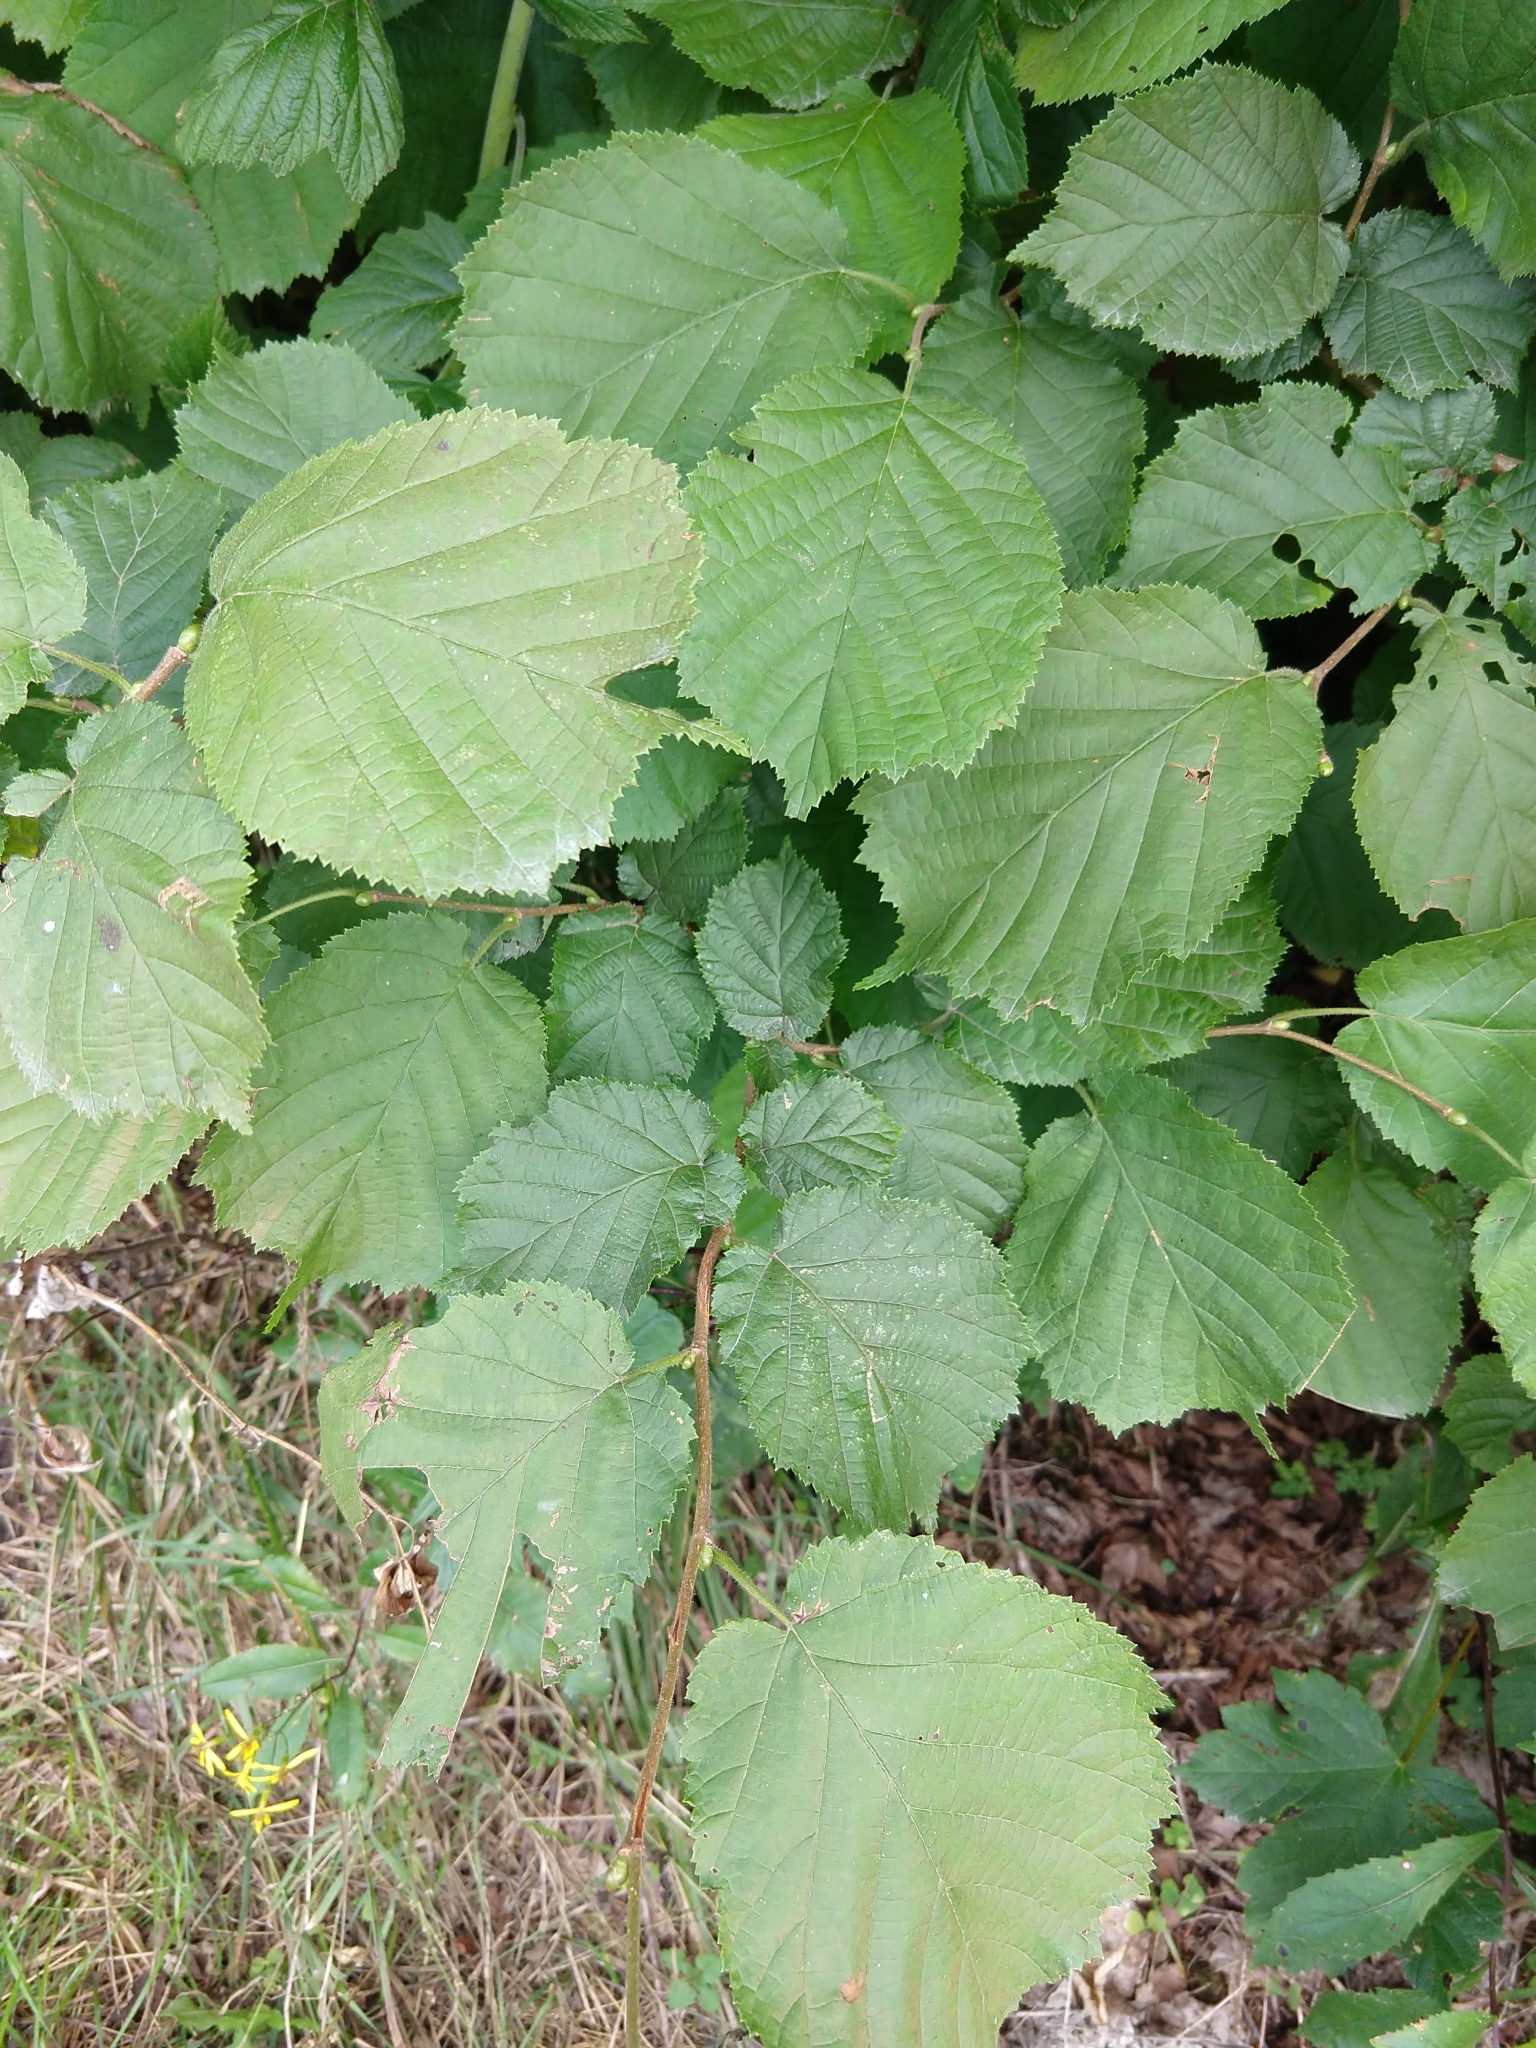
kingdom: Plantae
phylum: Tracheophyta
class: Magnoliopsida
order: Fagales
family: Betulaceae
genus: Corylus
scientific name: Corylus avellana
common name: European hazel
